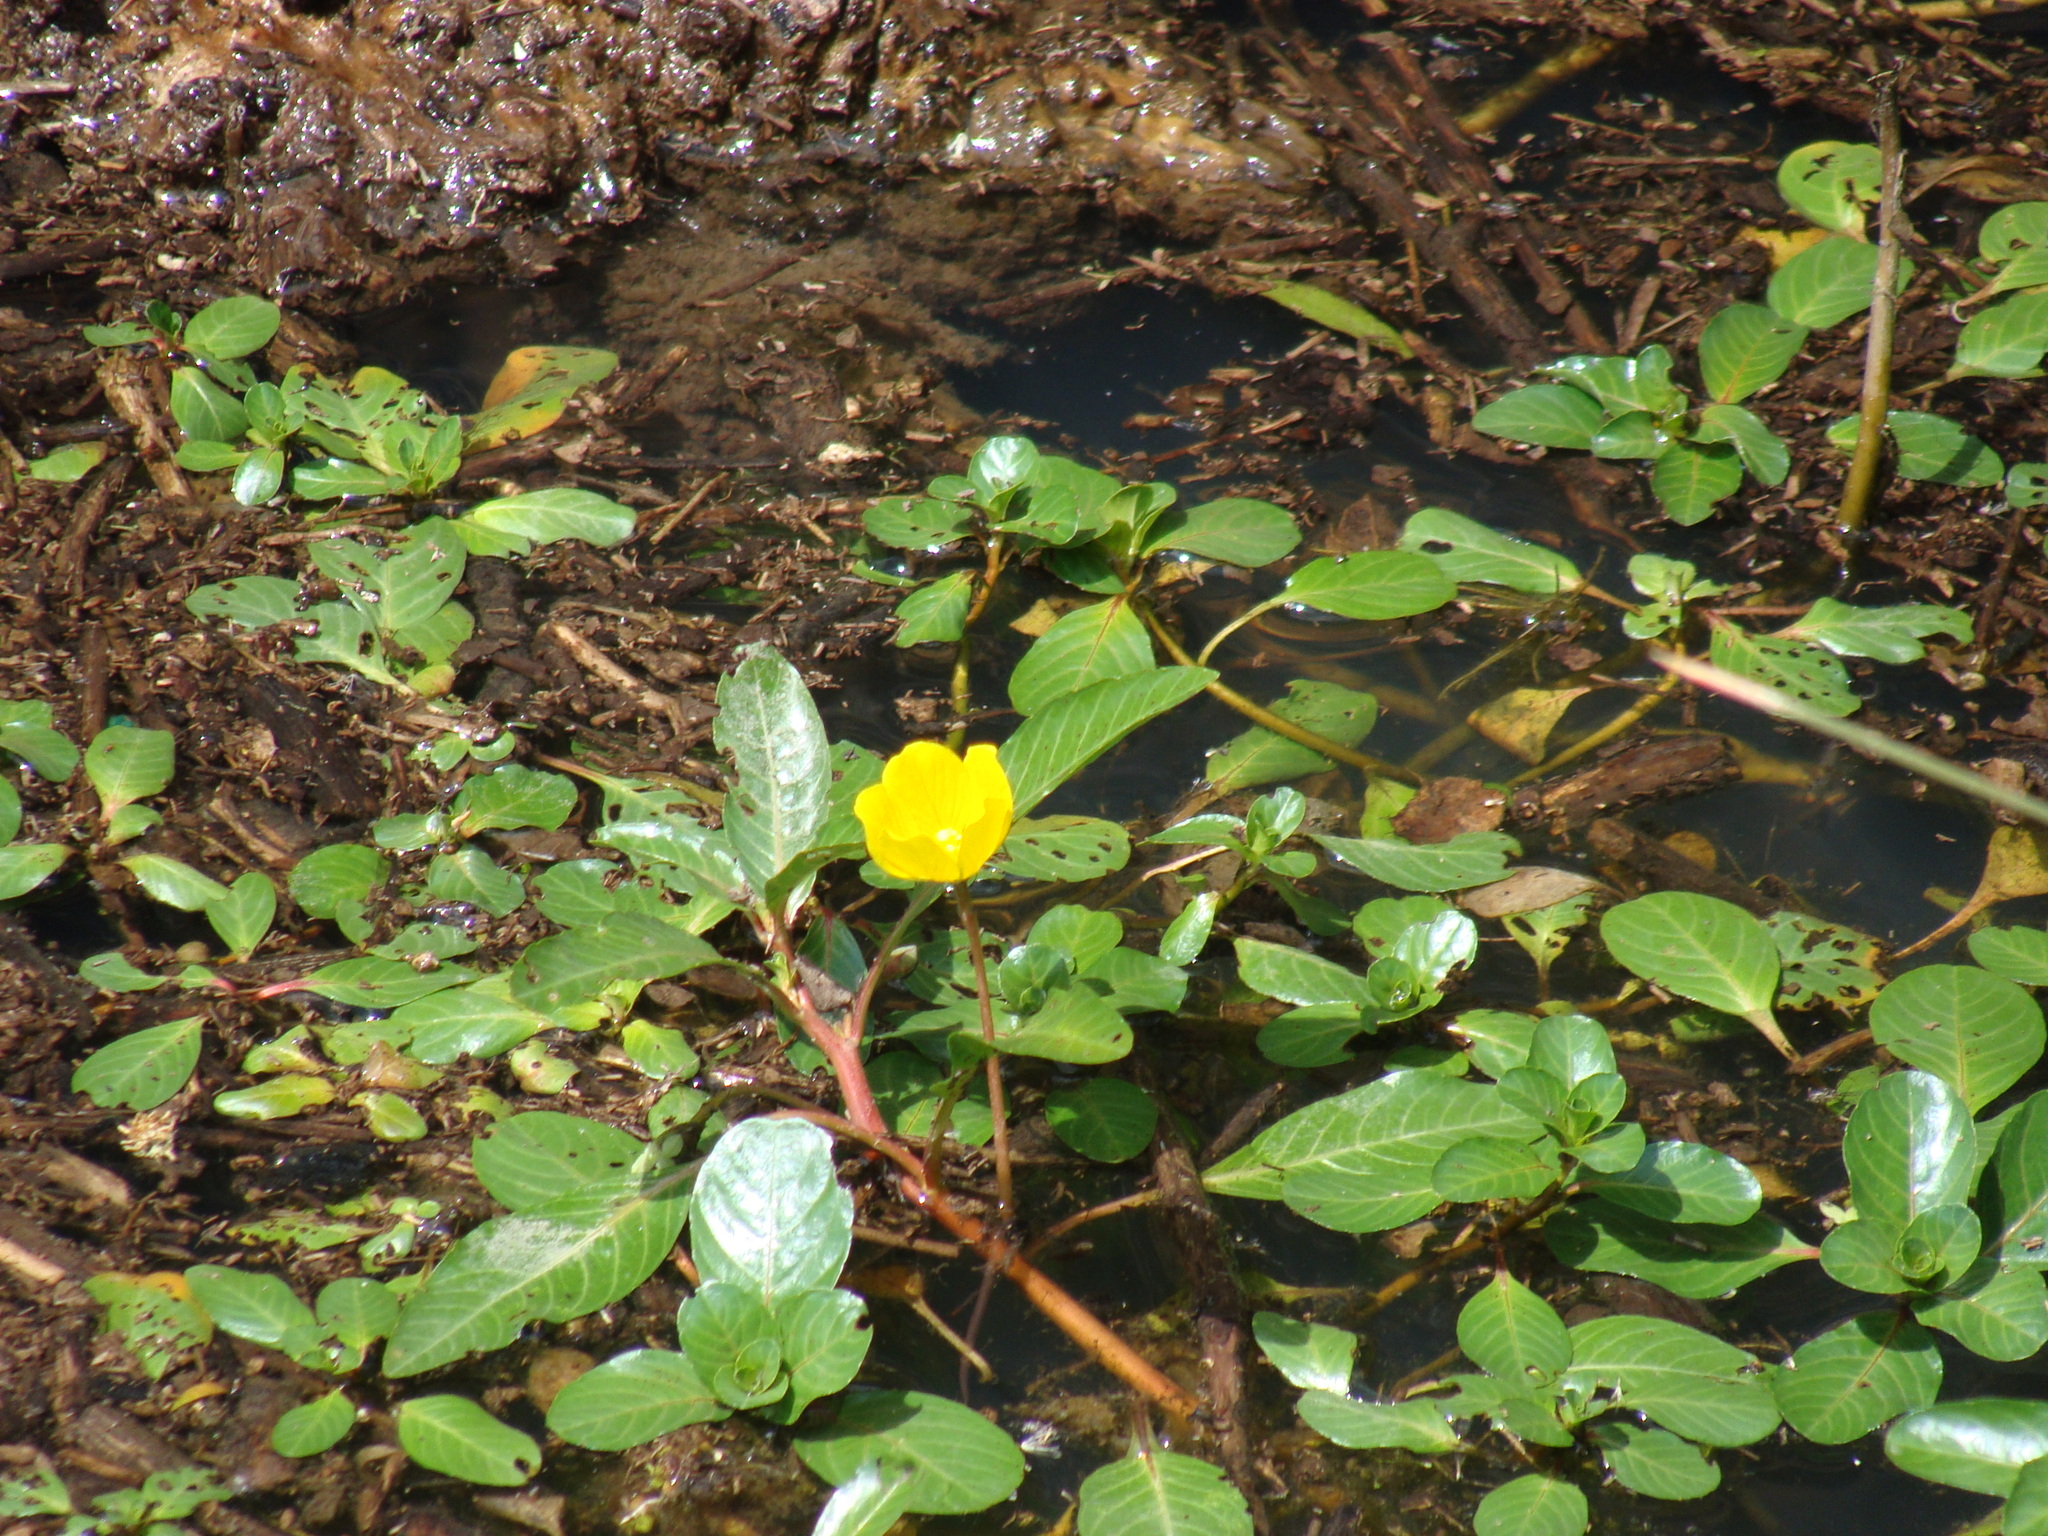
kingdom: Plantae
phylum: Tracheophyta
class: Magnoliopsida
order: Myrtales
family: Onagraceae
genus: Ludwigia
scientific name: Ludwigia peploides
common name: Floating primrose-willow
